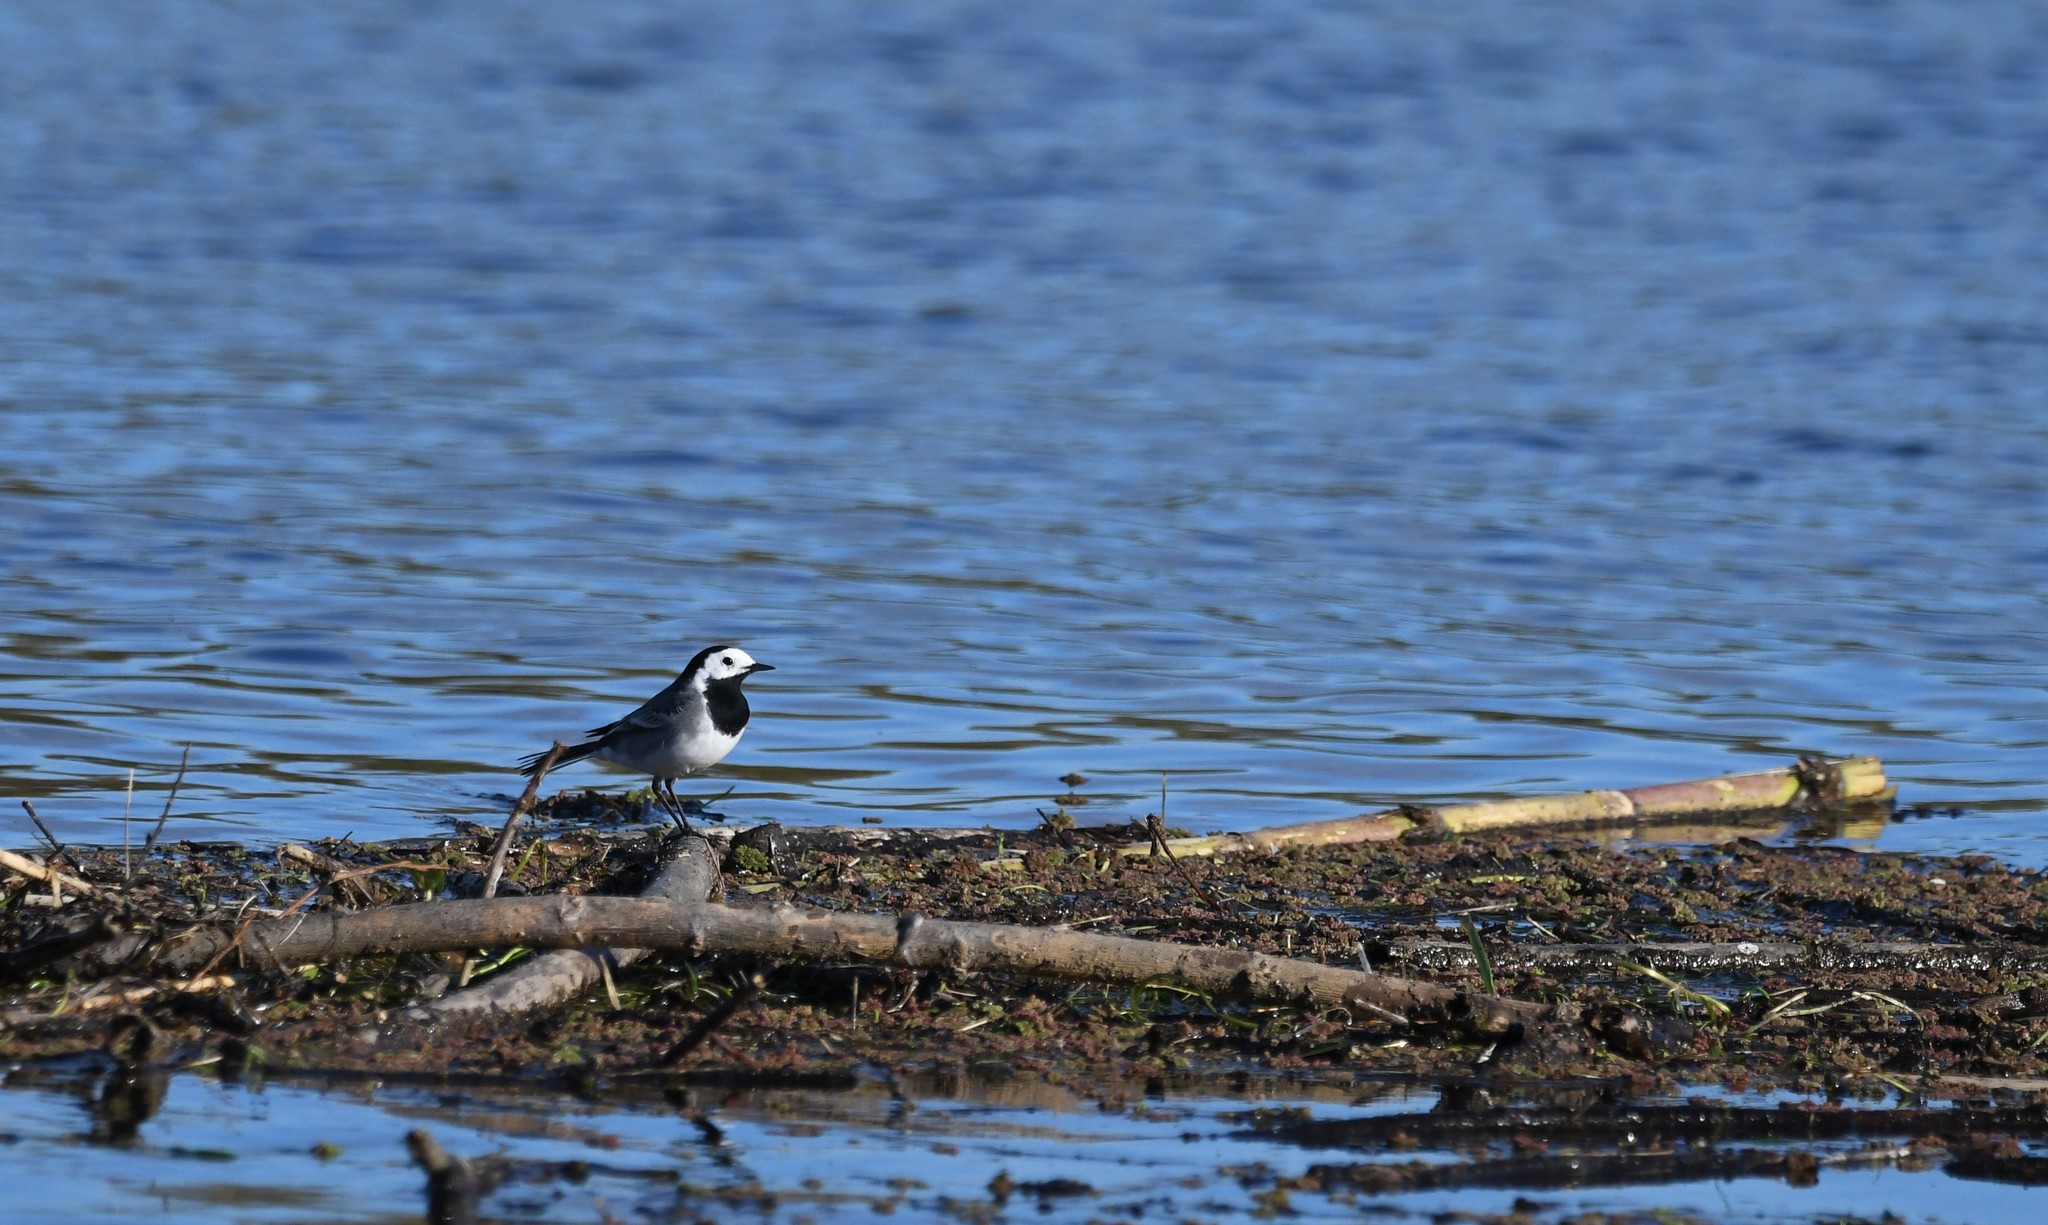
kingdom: Animalia
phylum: Chordata
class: Aves
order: Passeriformes
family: Motacillidae
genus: Motacilla
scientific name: Motacilla alba
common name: White wagtail
